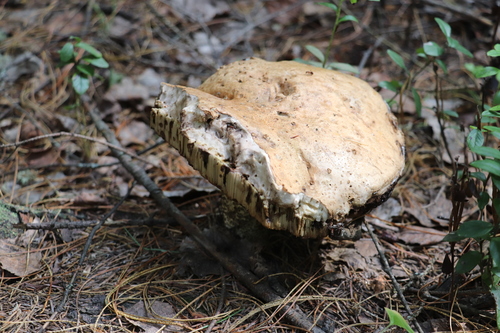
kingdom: Fungi
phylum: Basidiomycota
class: Agaricomycetes
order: Boletales
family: Boletaceae
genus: Leccinum
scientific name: Leccinum
